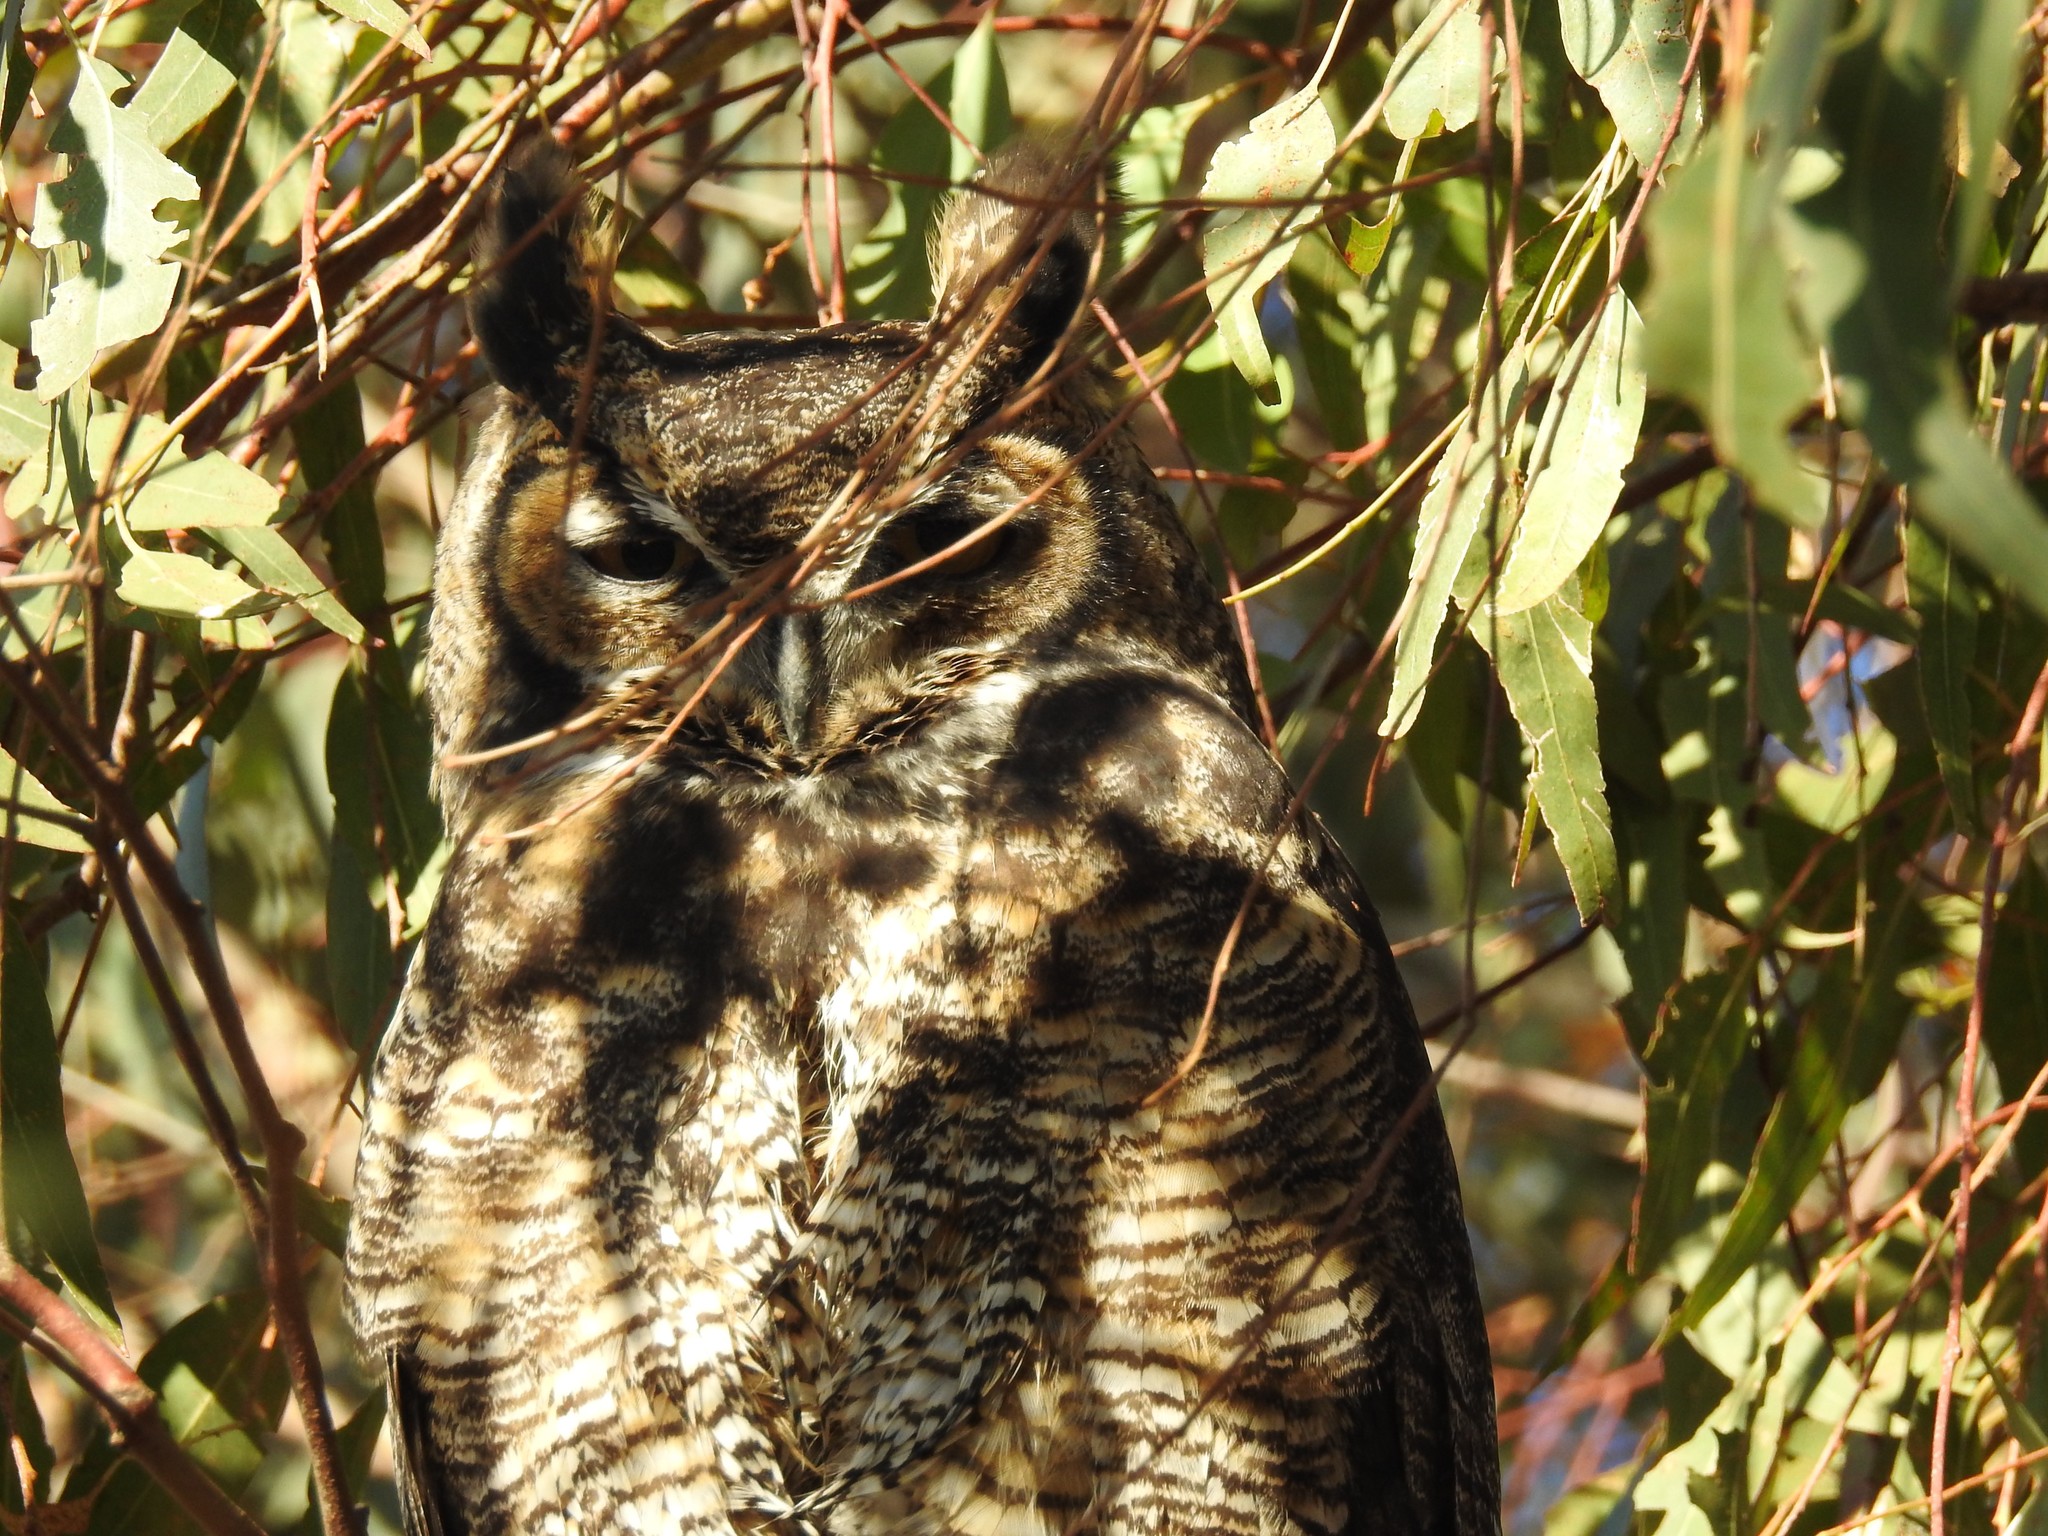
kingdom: Animalia
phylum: Chordata
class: Aves
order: Strigiformes
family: Strigidae
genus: Bubo
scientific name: Bubo virginianus
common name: Great horned owl
